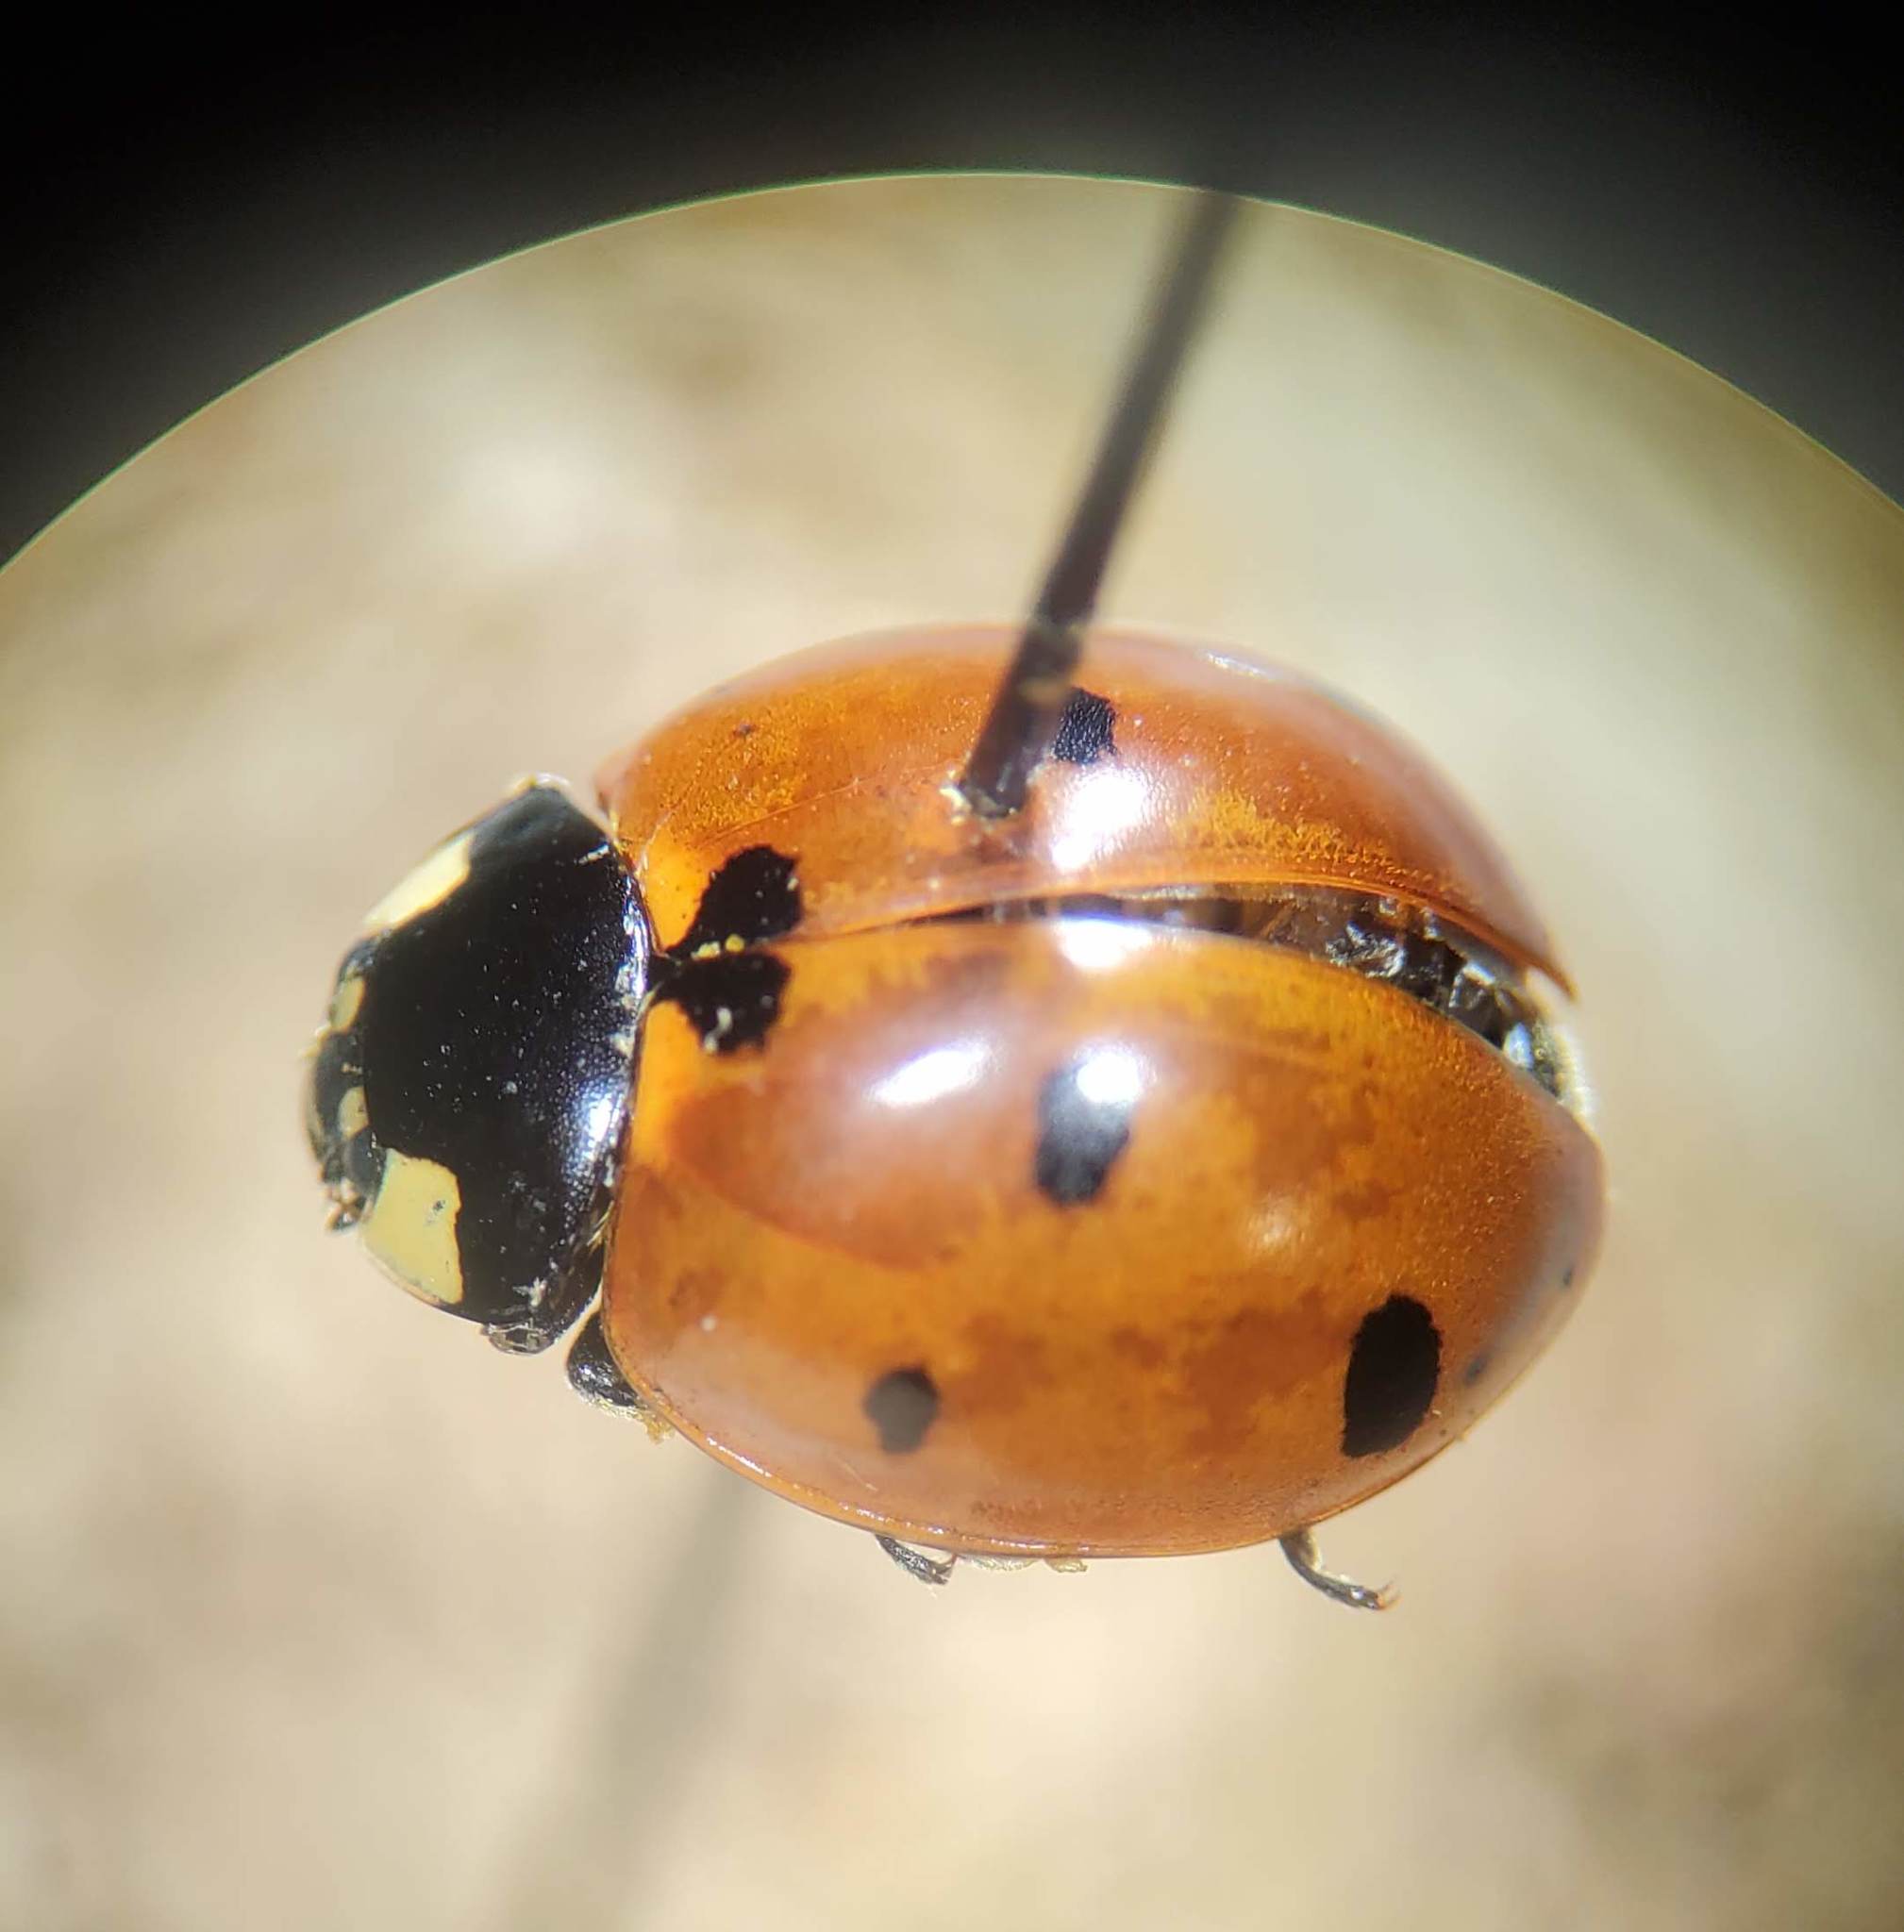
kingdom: Animalia
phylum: Arthropoda
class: Insecta
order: Coleoptera
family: Coccinellidae
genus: Coccinella
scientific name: Coccinella septempunctata
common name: Sevenspotted lady beetle
